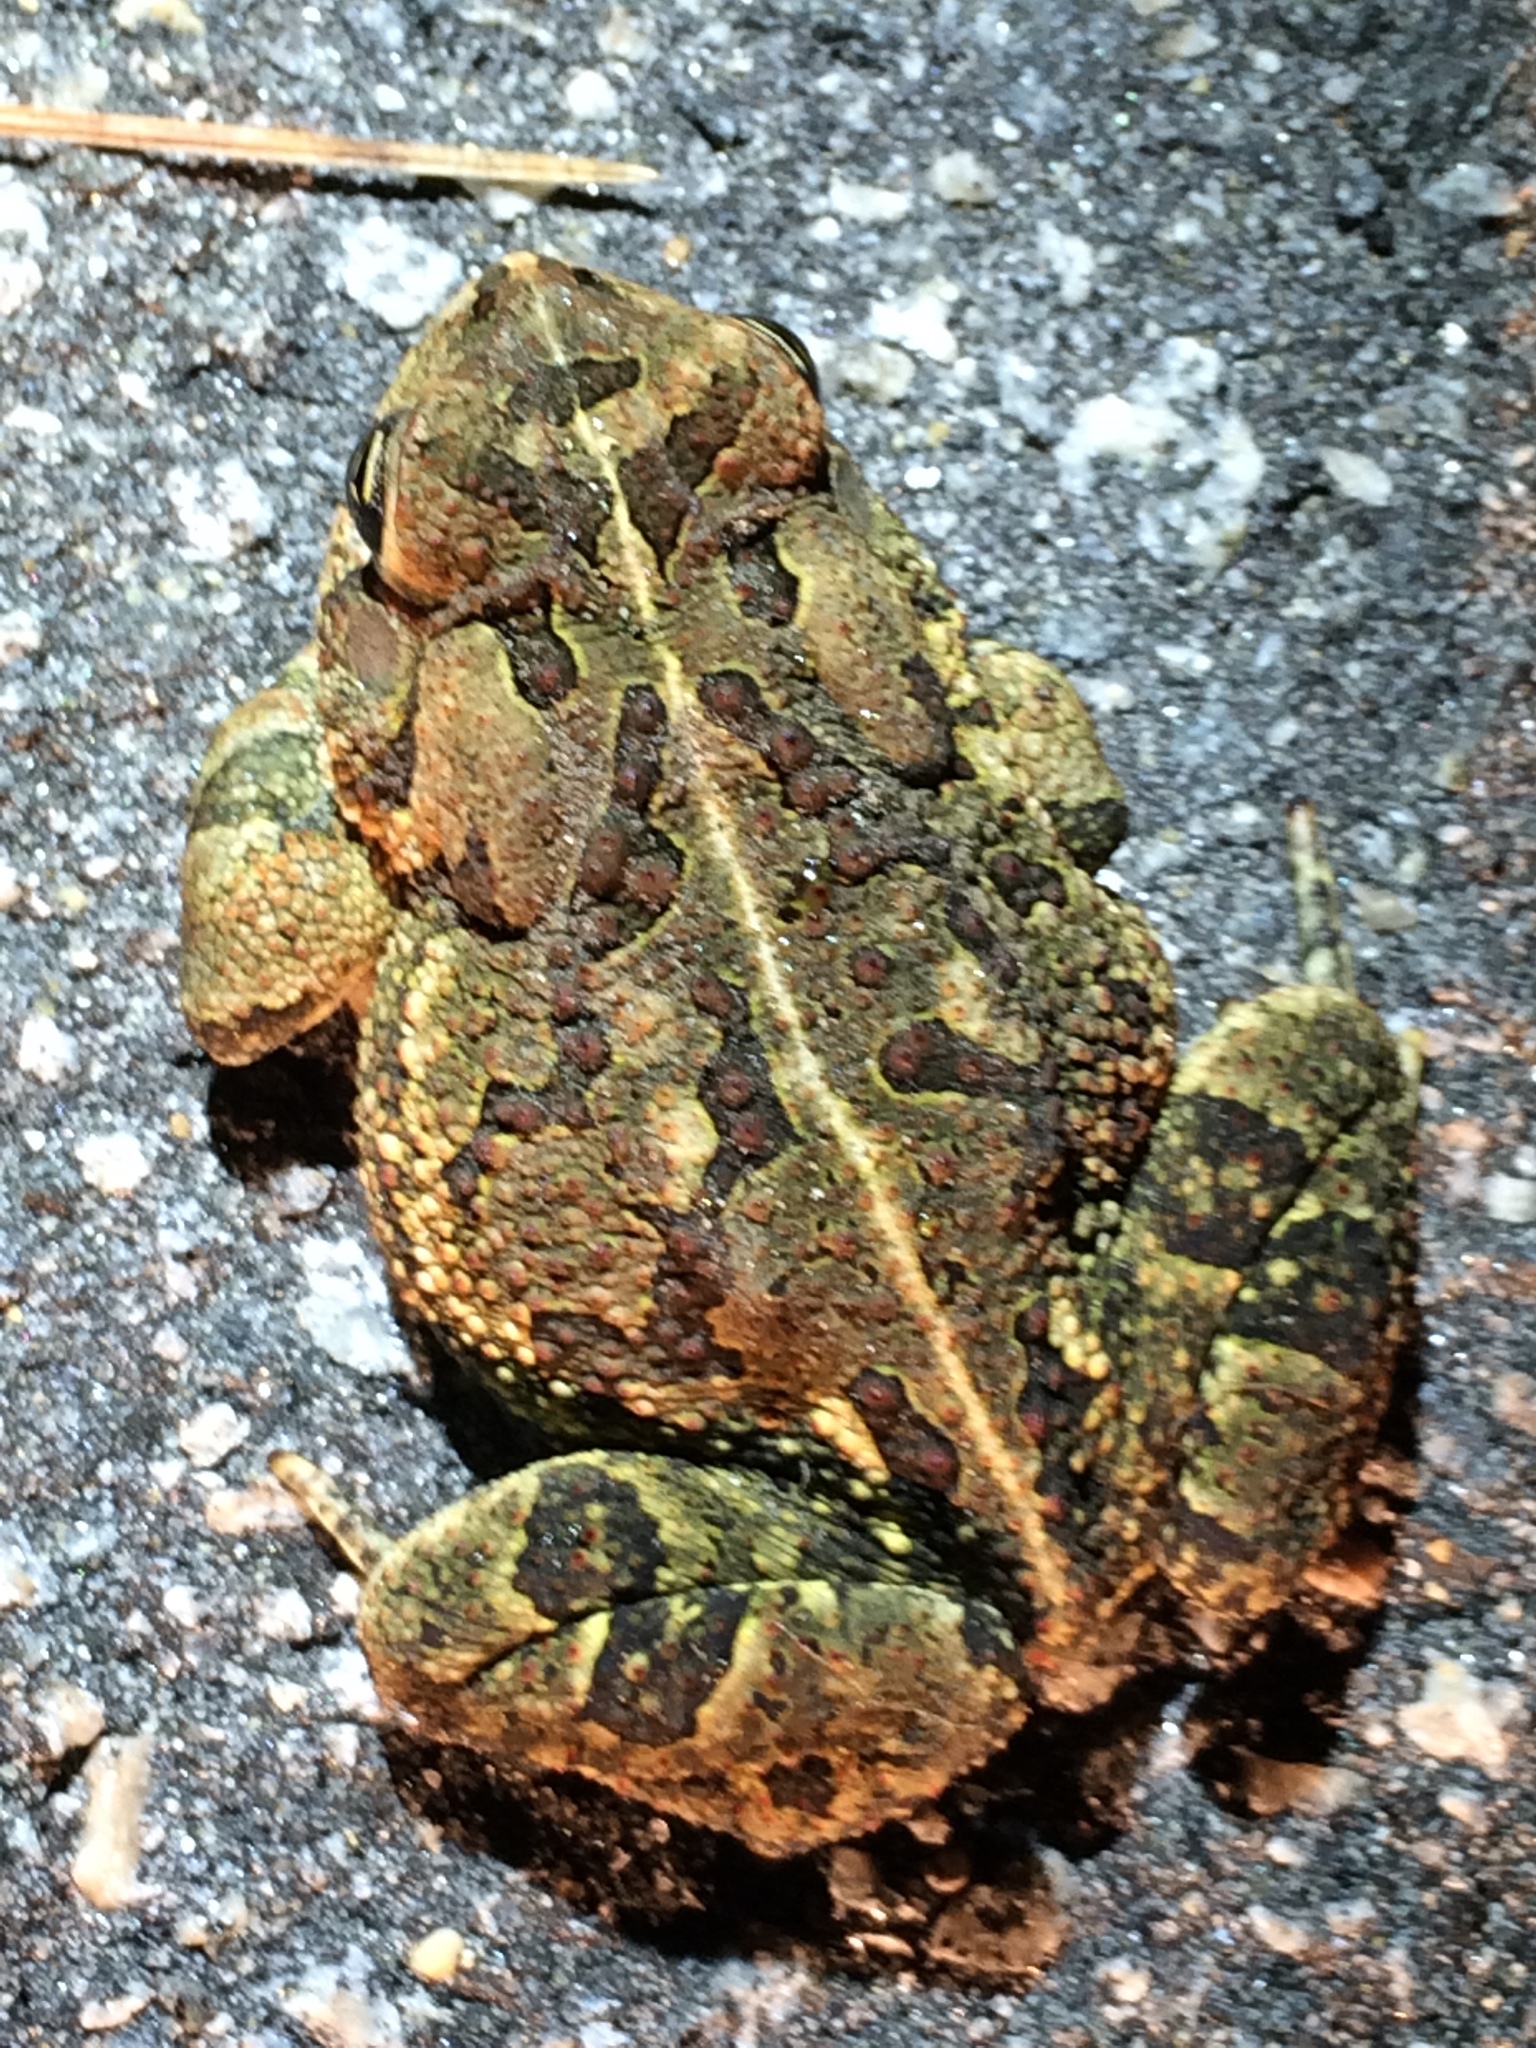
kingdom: Animalia
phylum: Chordata
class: Amphibia
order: Anura
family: Bufonidae
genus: Anaxyrus
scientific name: Anaxyrus fowleri
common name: Fowler's toad
